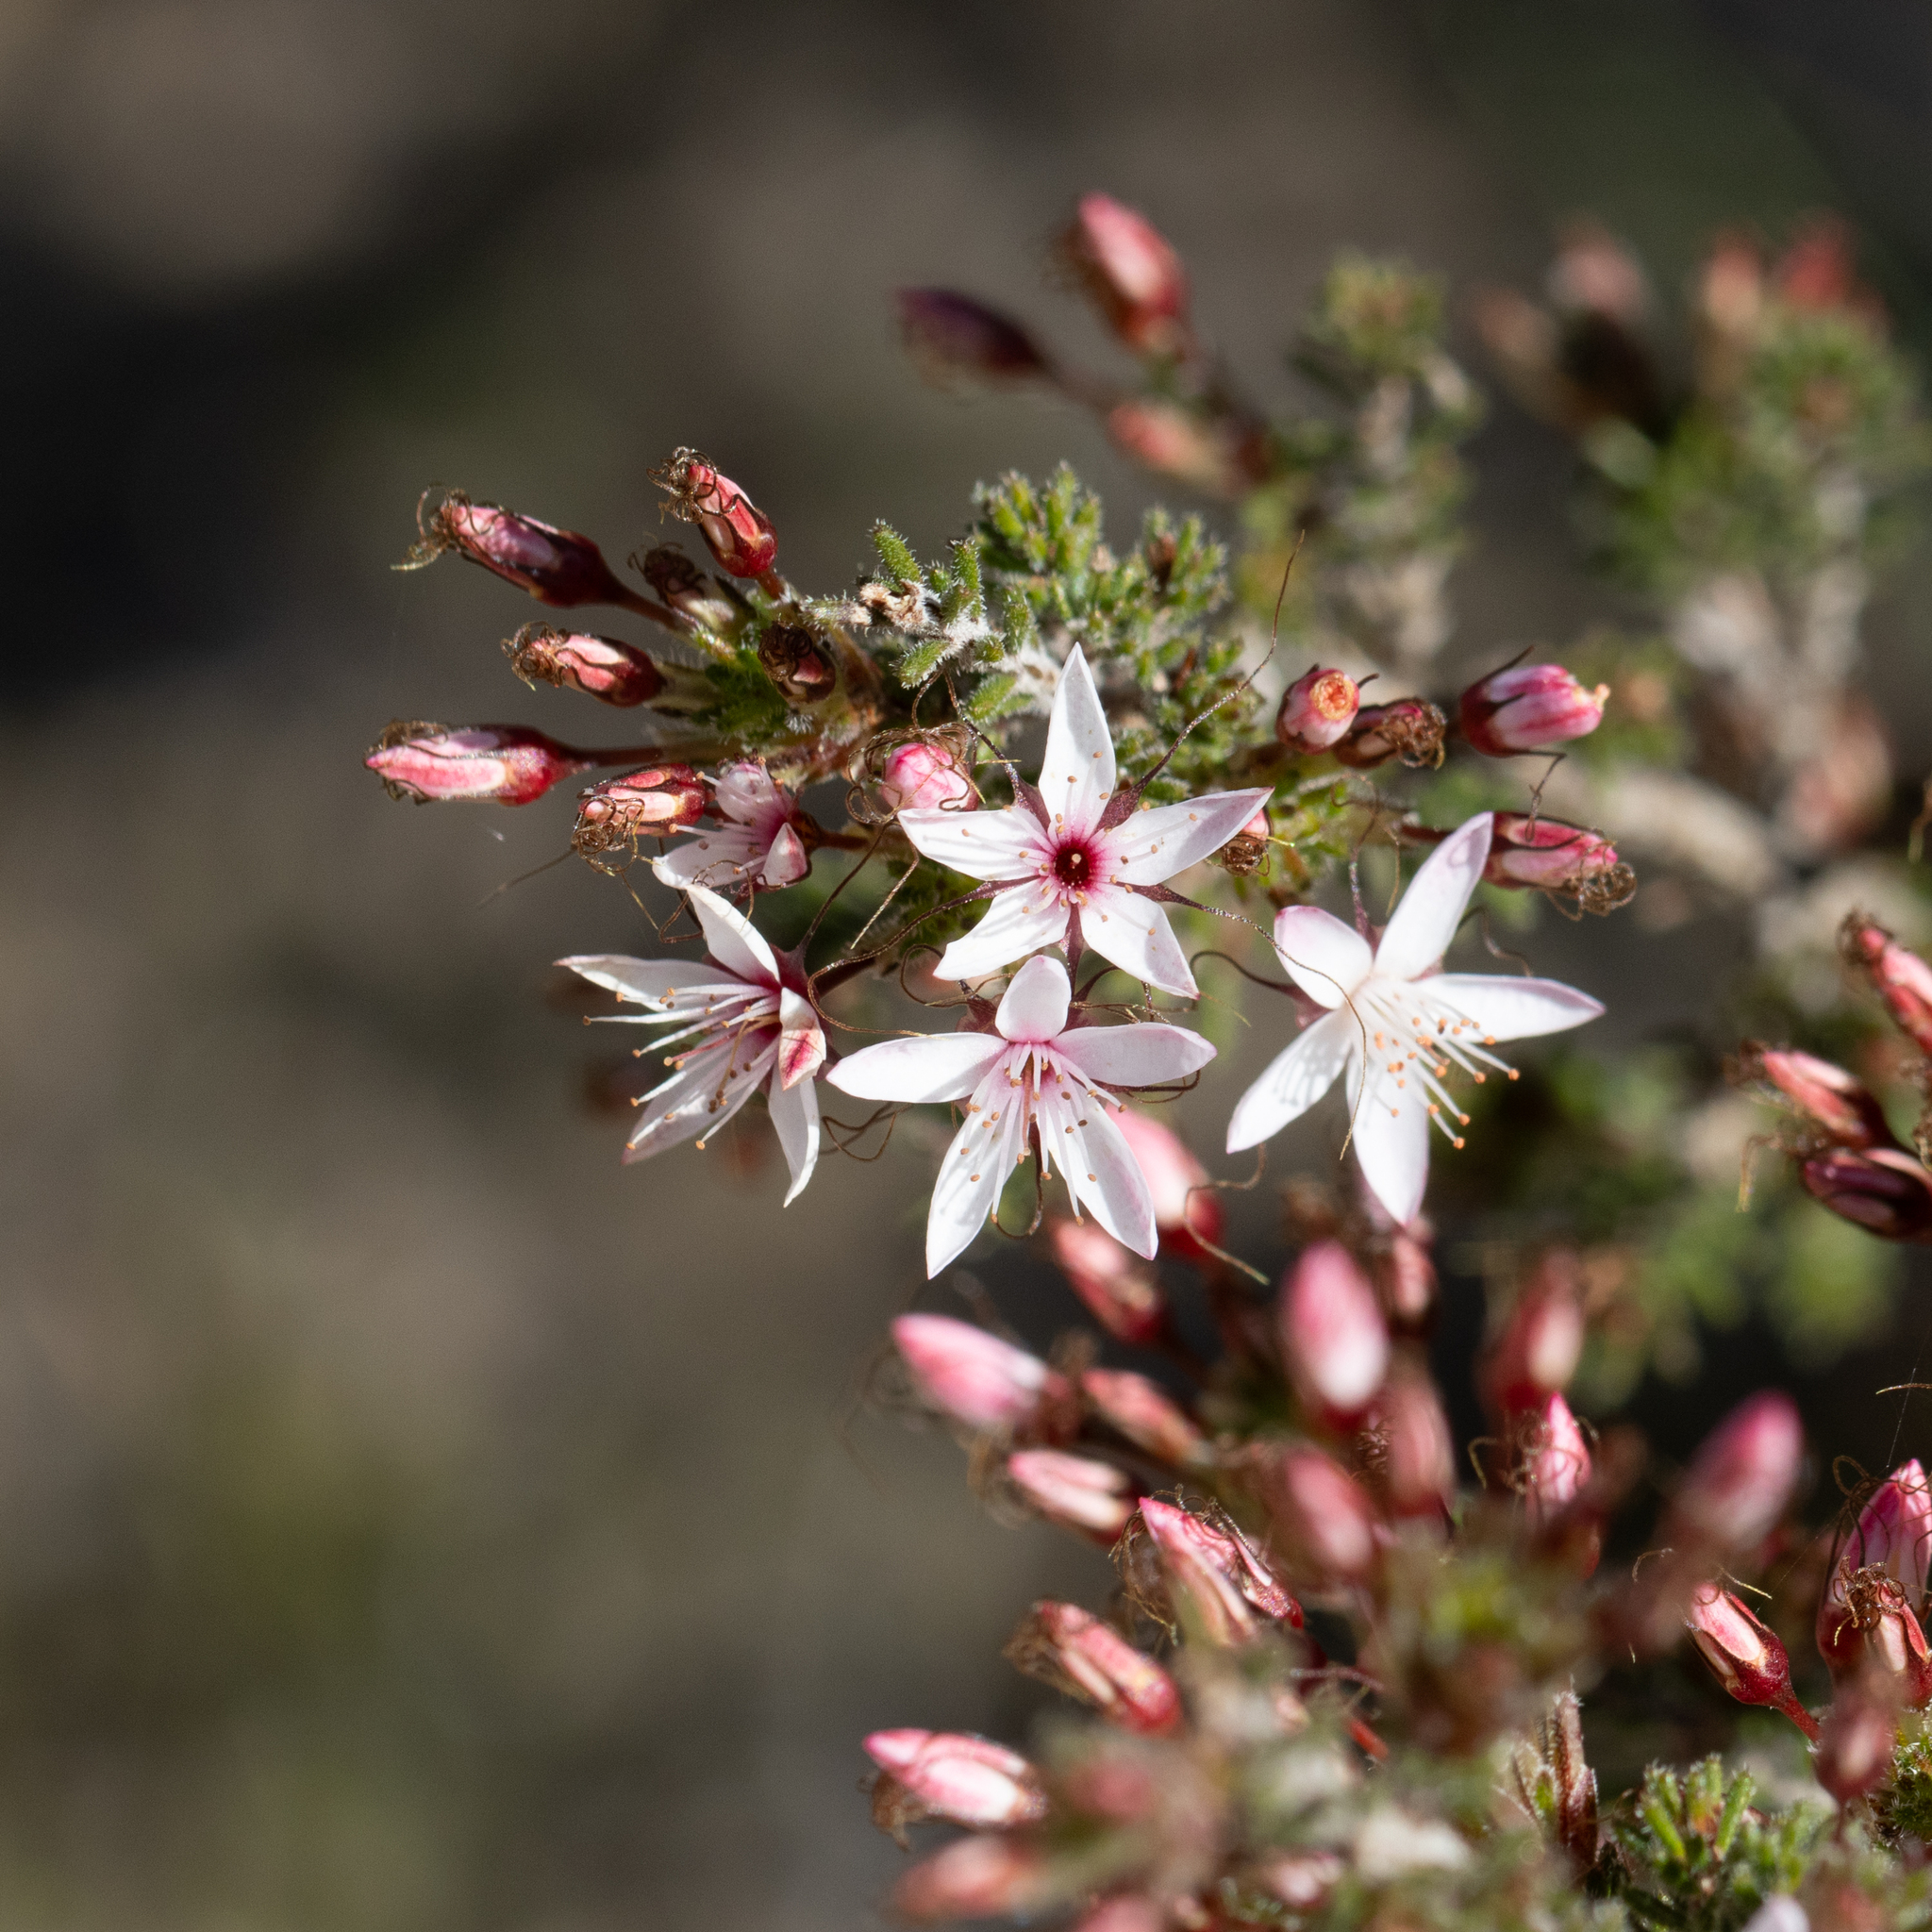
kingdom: Plantae
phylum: Tracheophyta
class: Magnoliopsida
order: Myrtales
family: Myrtaceae
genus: Calytrix
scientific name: Calytrix tetragona
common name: Common fringe myrtle
